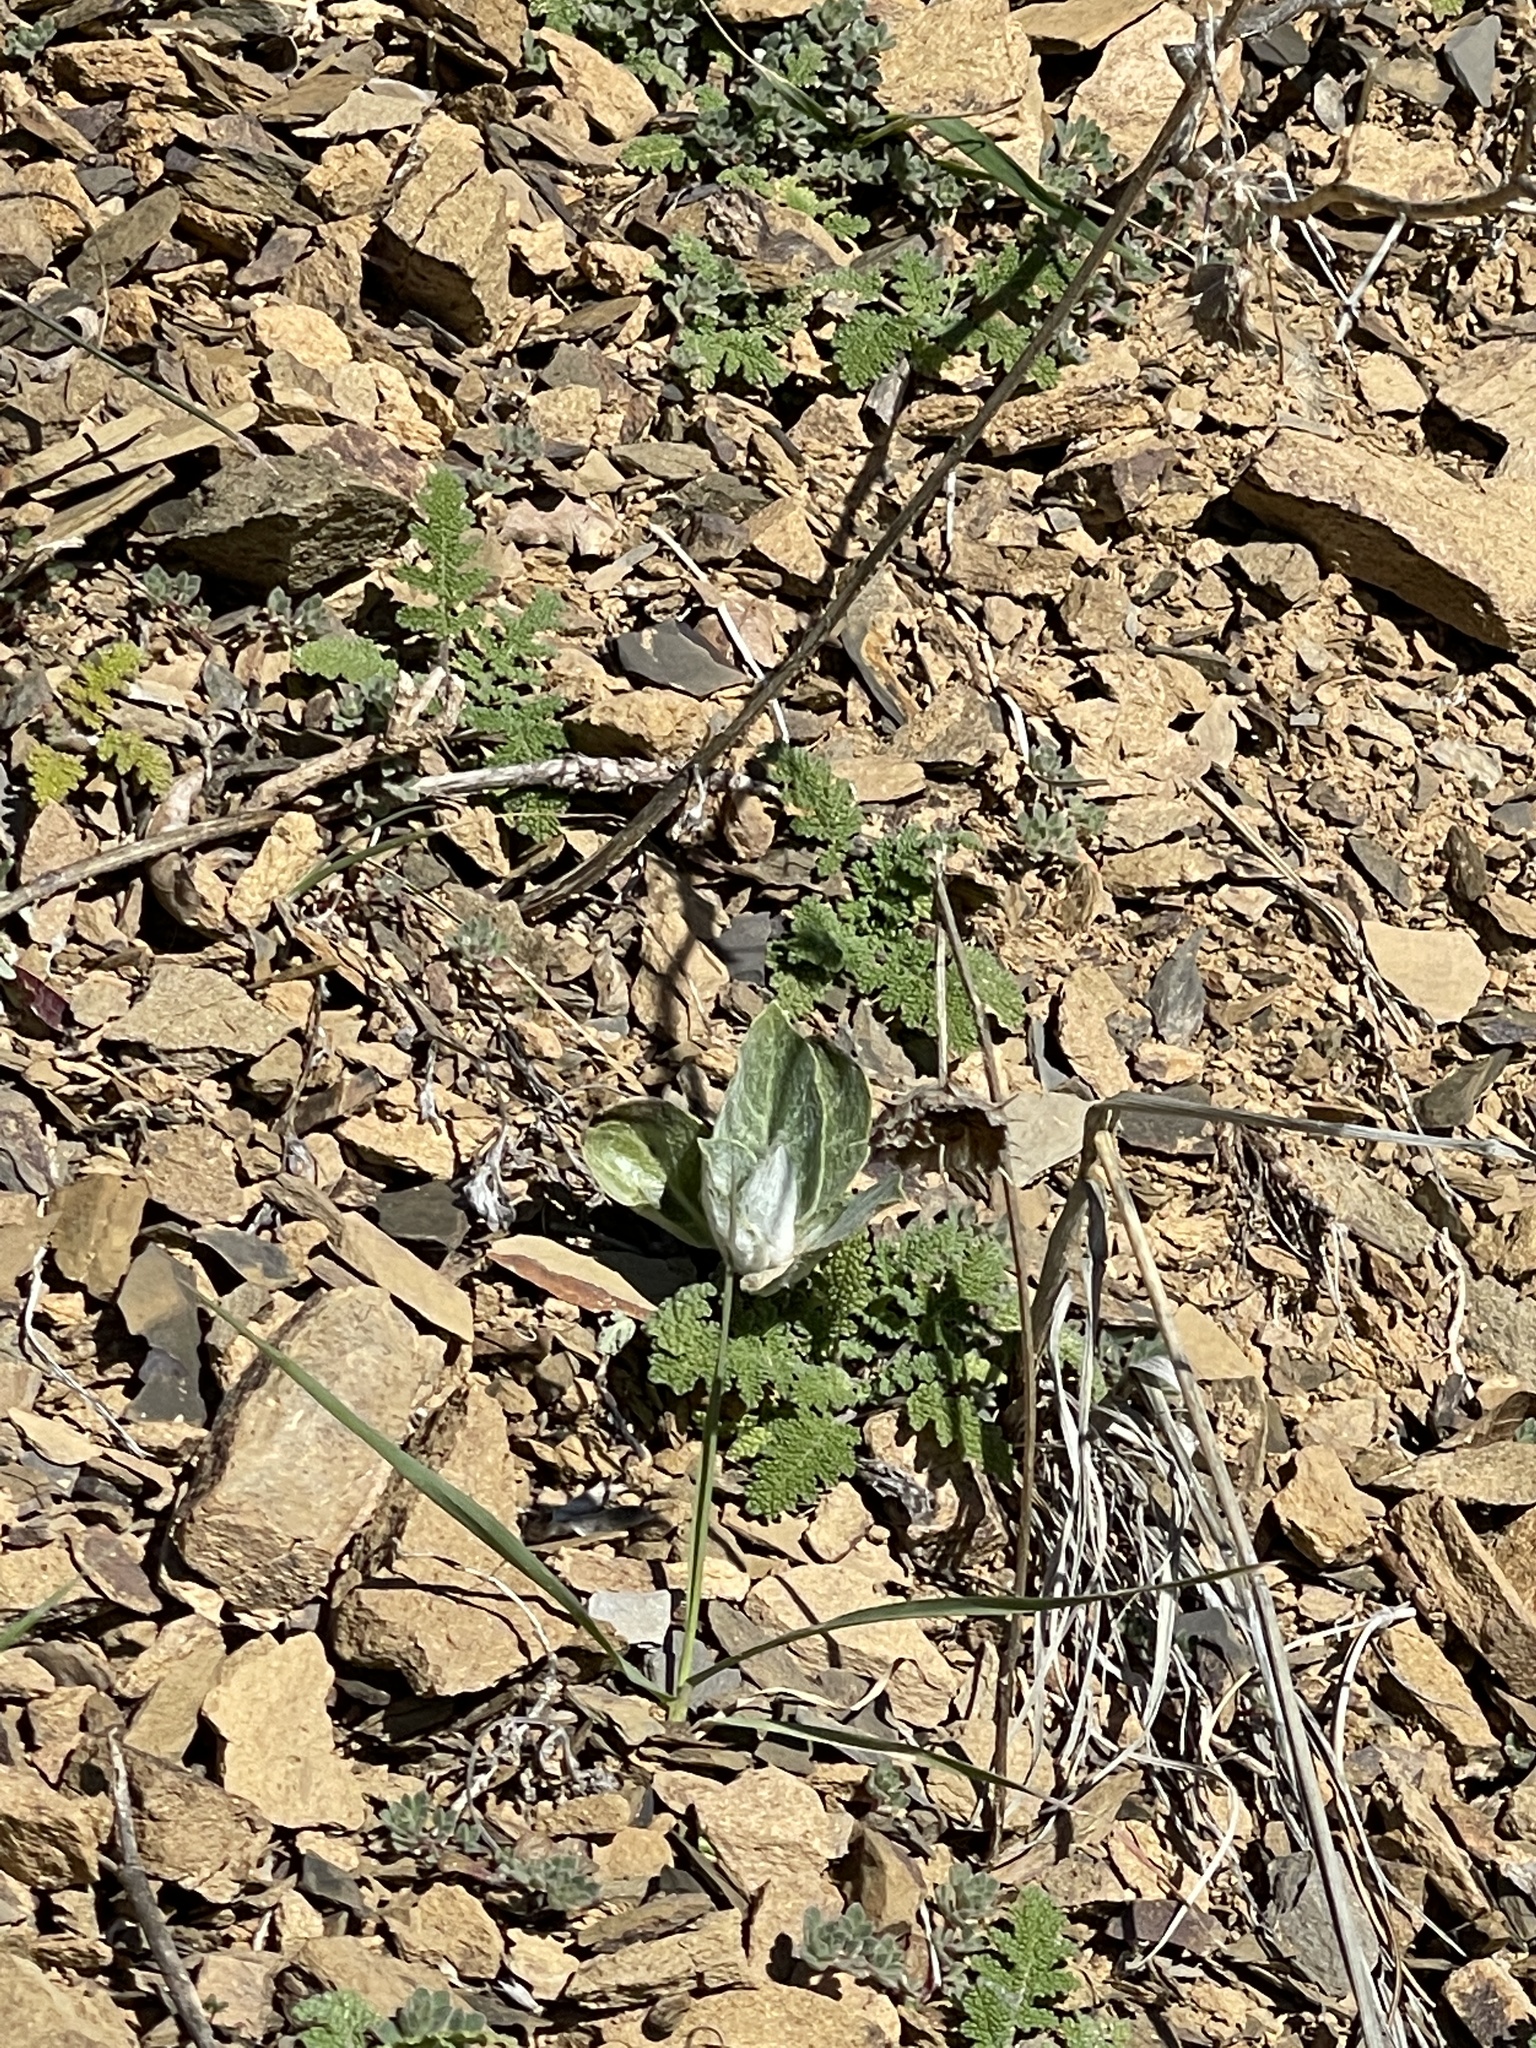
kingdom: Plantae
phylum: Tracheophyta
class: Magnoliopsida
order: Gentianales
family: Apocynaceae
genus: Asclepias
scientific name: Asclepias californica
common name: California milkweed
